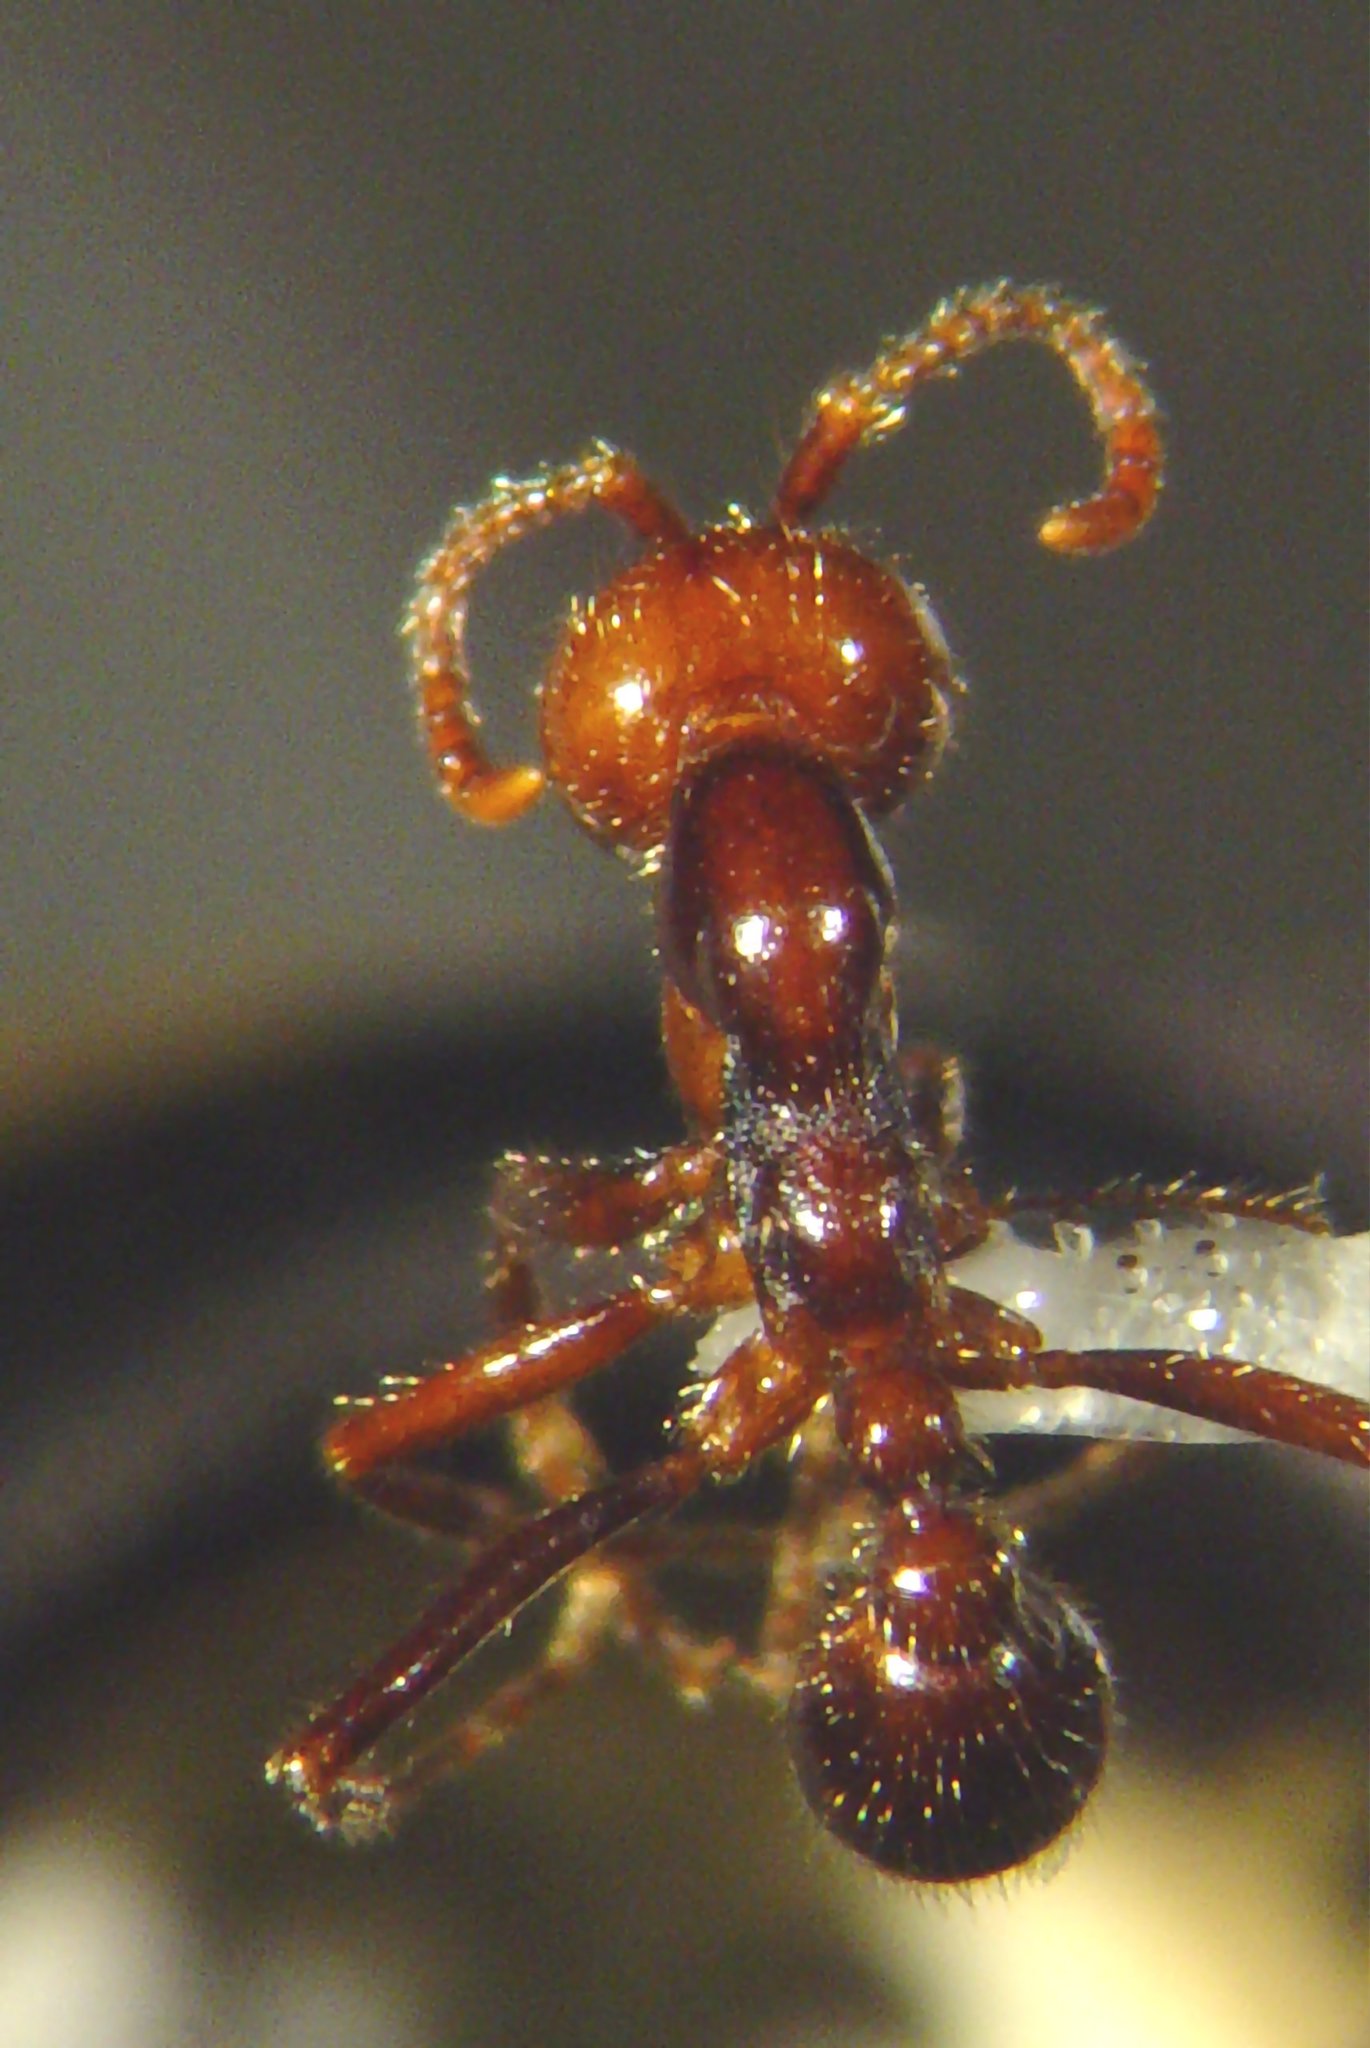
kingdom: Animalia
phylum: Arthropoda
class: Insecta
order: Hymenoptera
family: Formicidae
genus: Neivamyrmex
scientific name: Neivamyrmex pilosus
